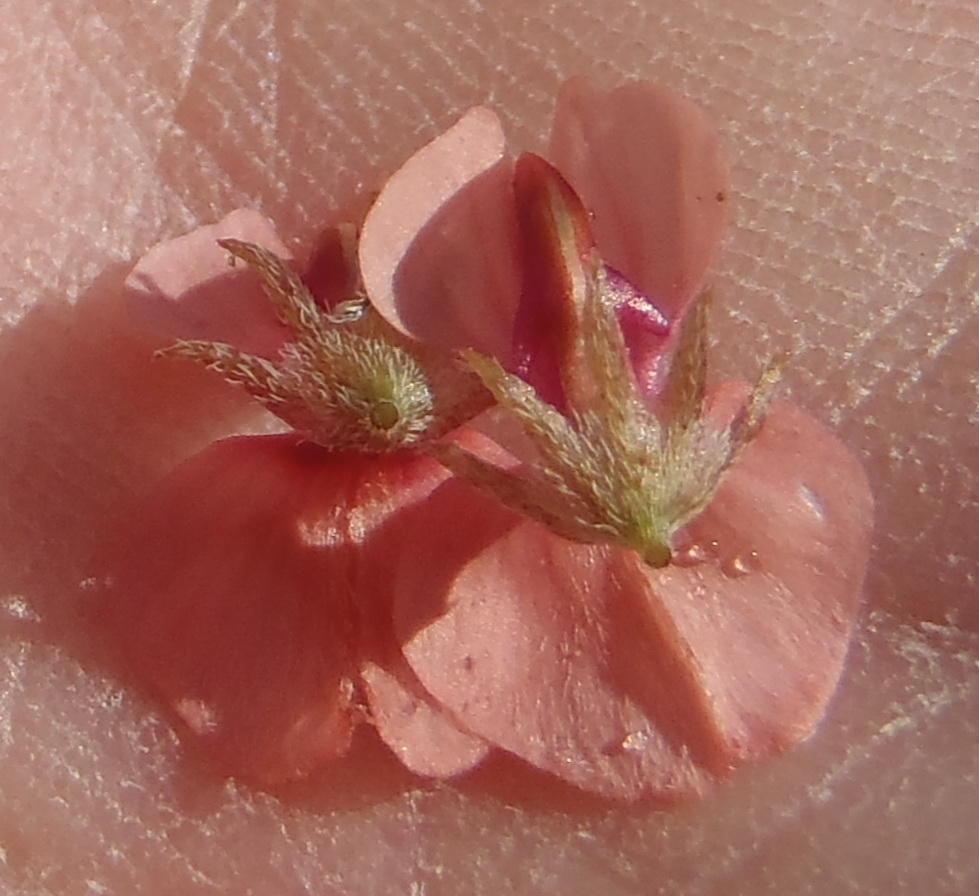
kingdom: Plantae
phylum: Tracheophyta
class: Magnoliopsida
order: Fabales
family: Fabaceae
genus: Indigofera
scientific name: Indigofera alternans
